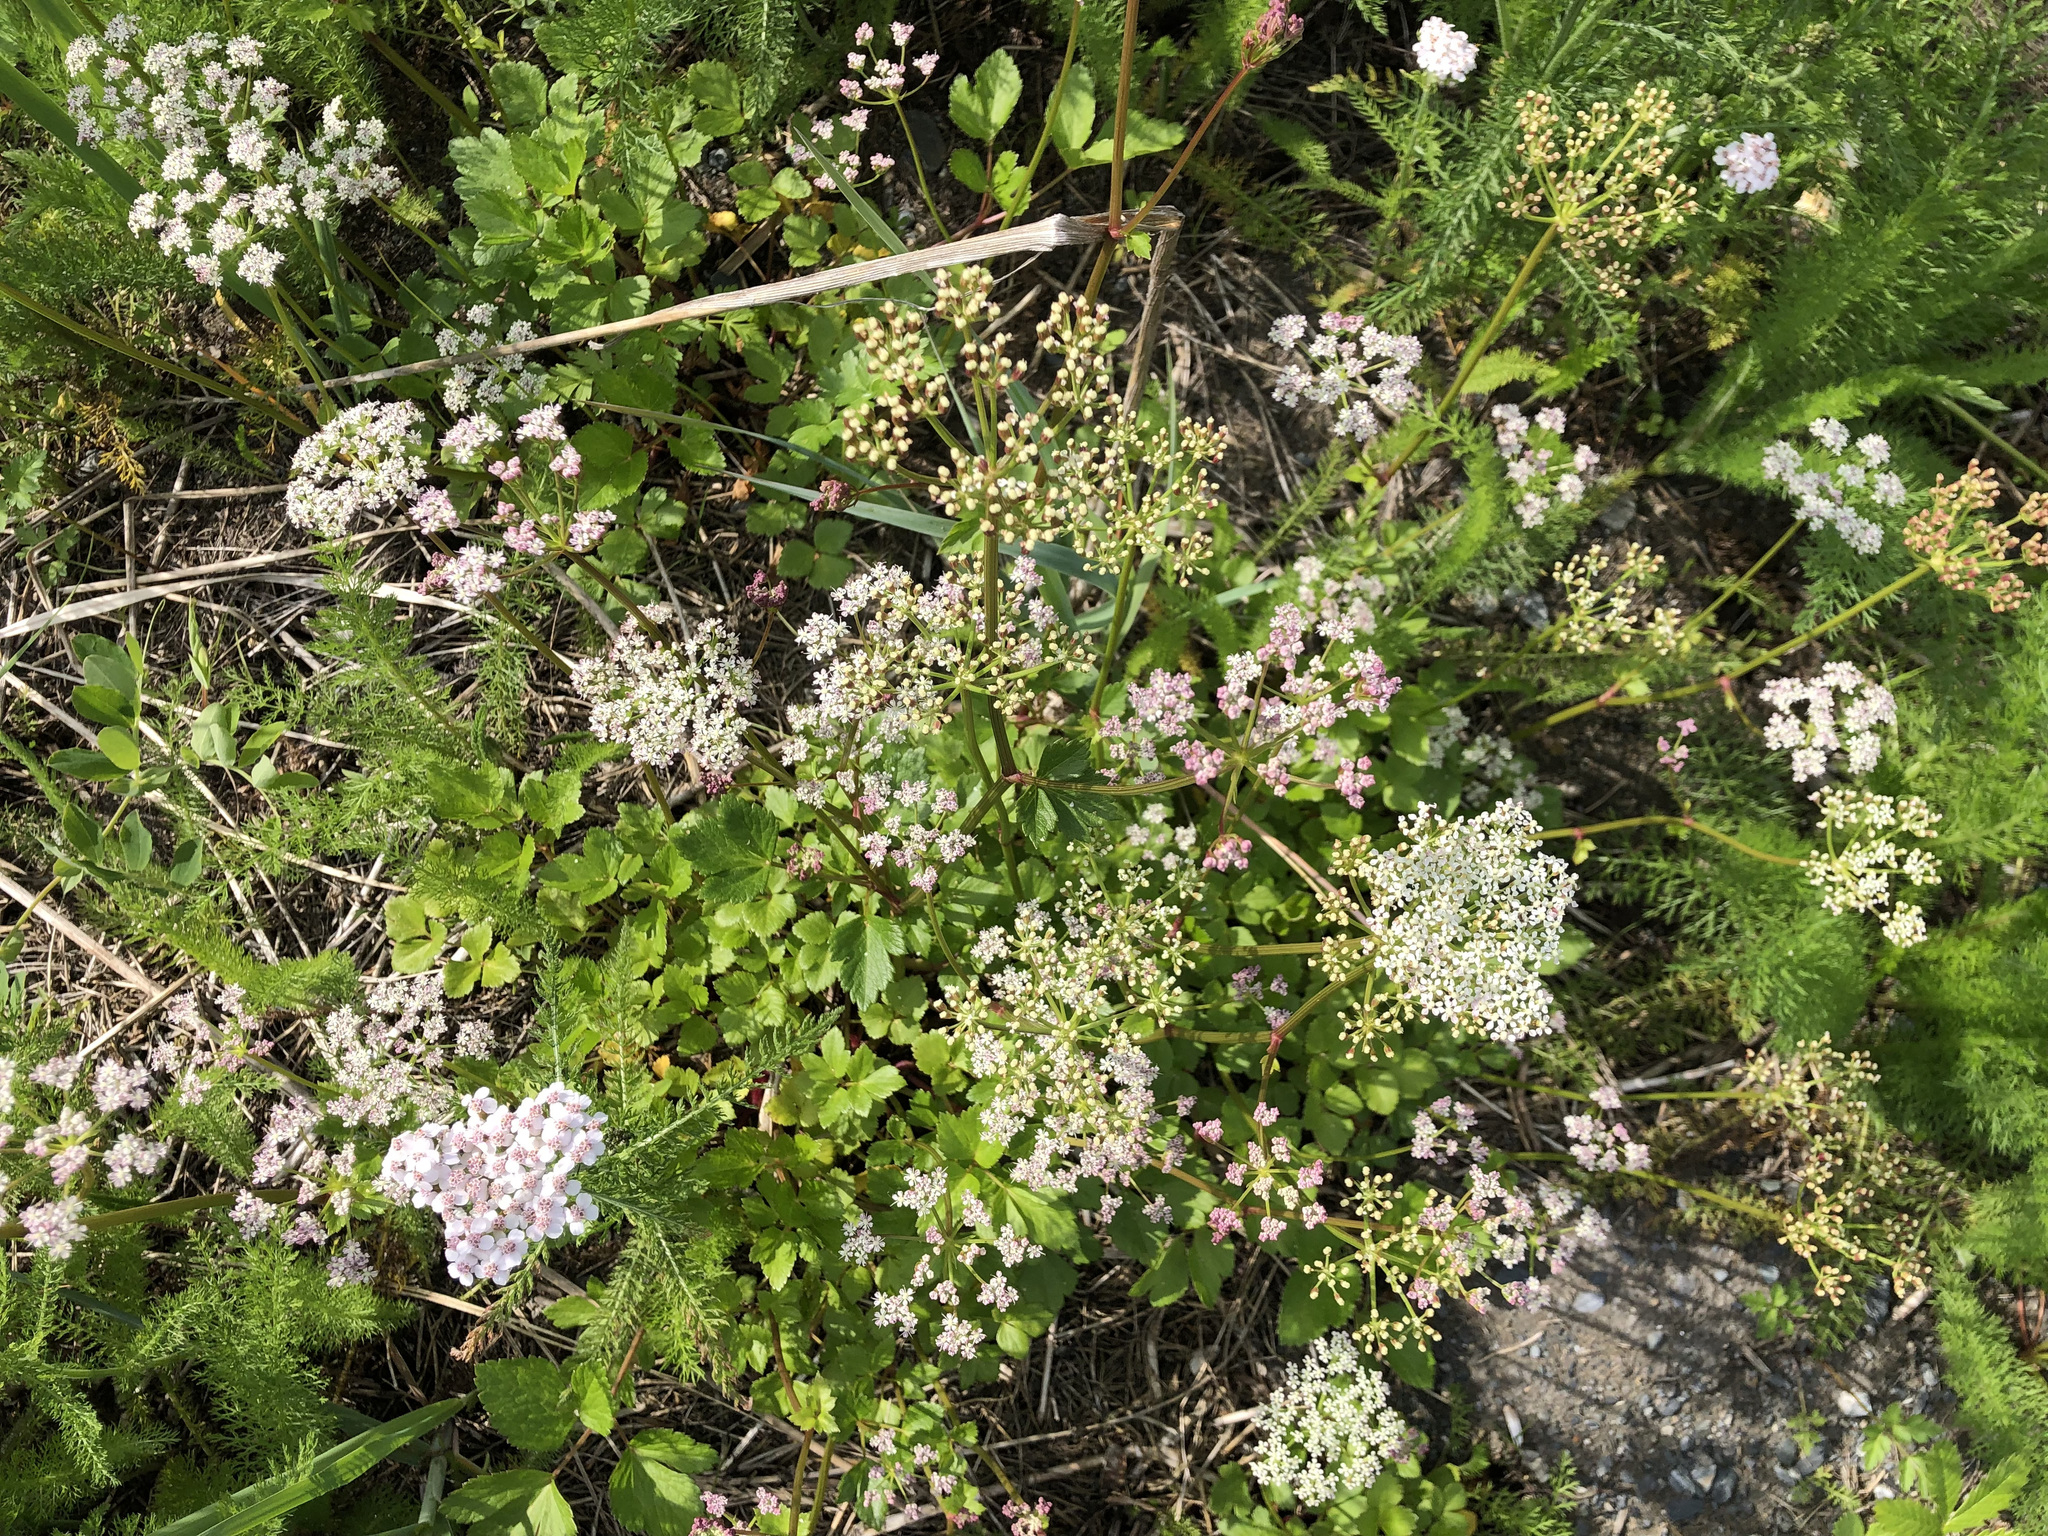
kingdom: Plantae
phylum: Tracheophyta
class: Magnoliopsida
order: Apiales
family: Apiaceae
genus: Ligusticum
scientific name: Ligusticum scothicum
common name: Beach lovage
